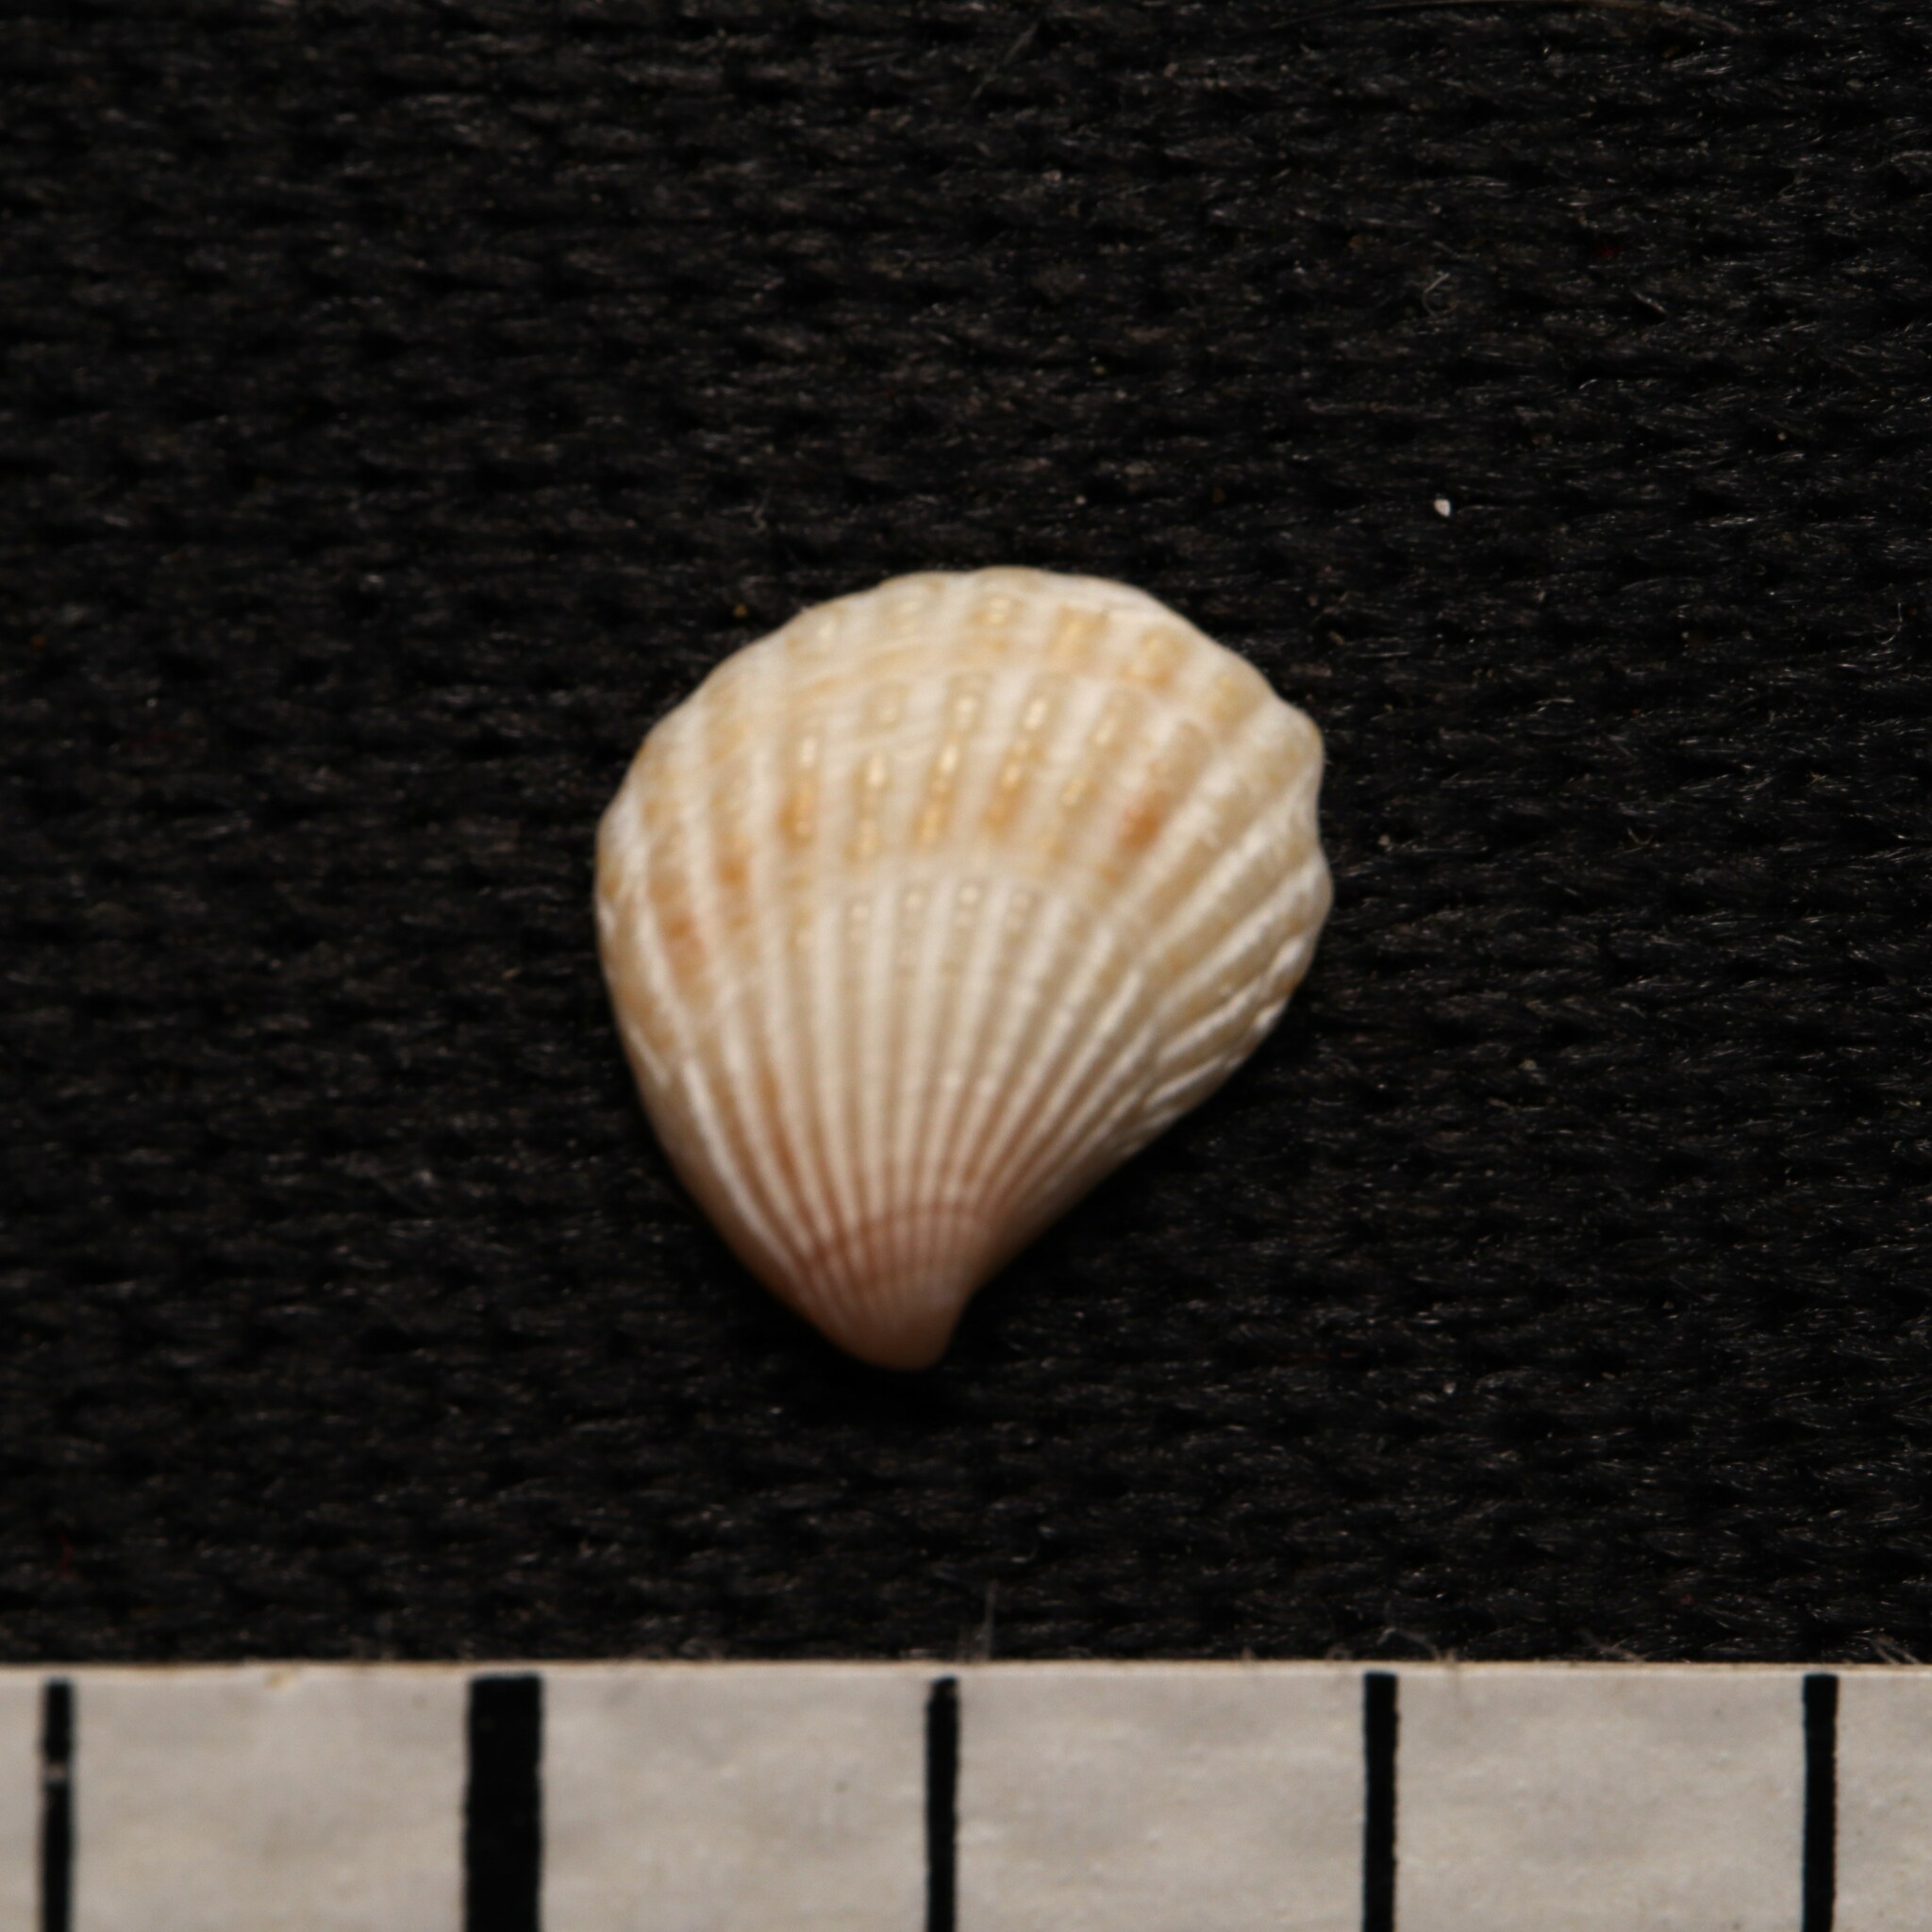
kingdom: Animalia
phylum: Mollusca
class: Bivalvia
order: Carditida
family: Carditidae
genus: Pteromeris
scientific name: Pteromeris perplana
